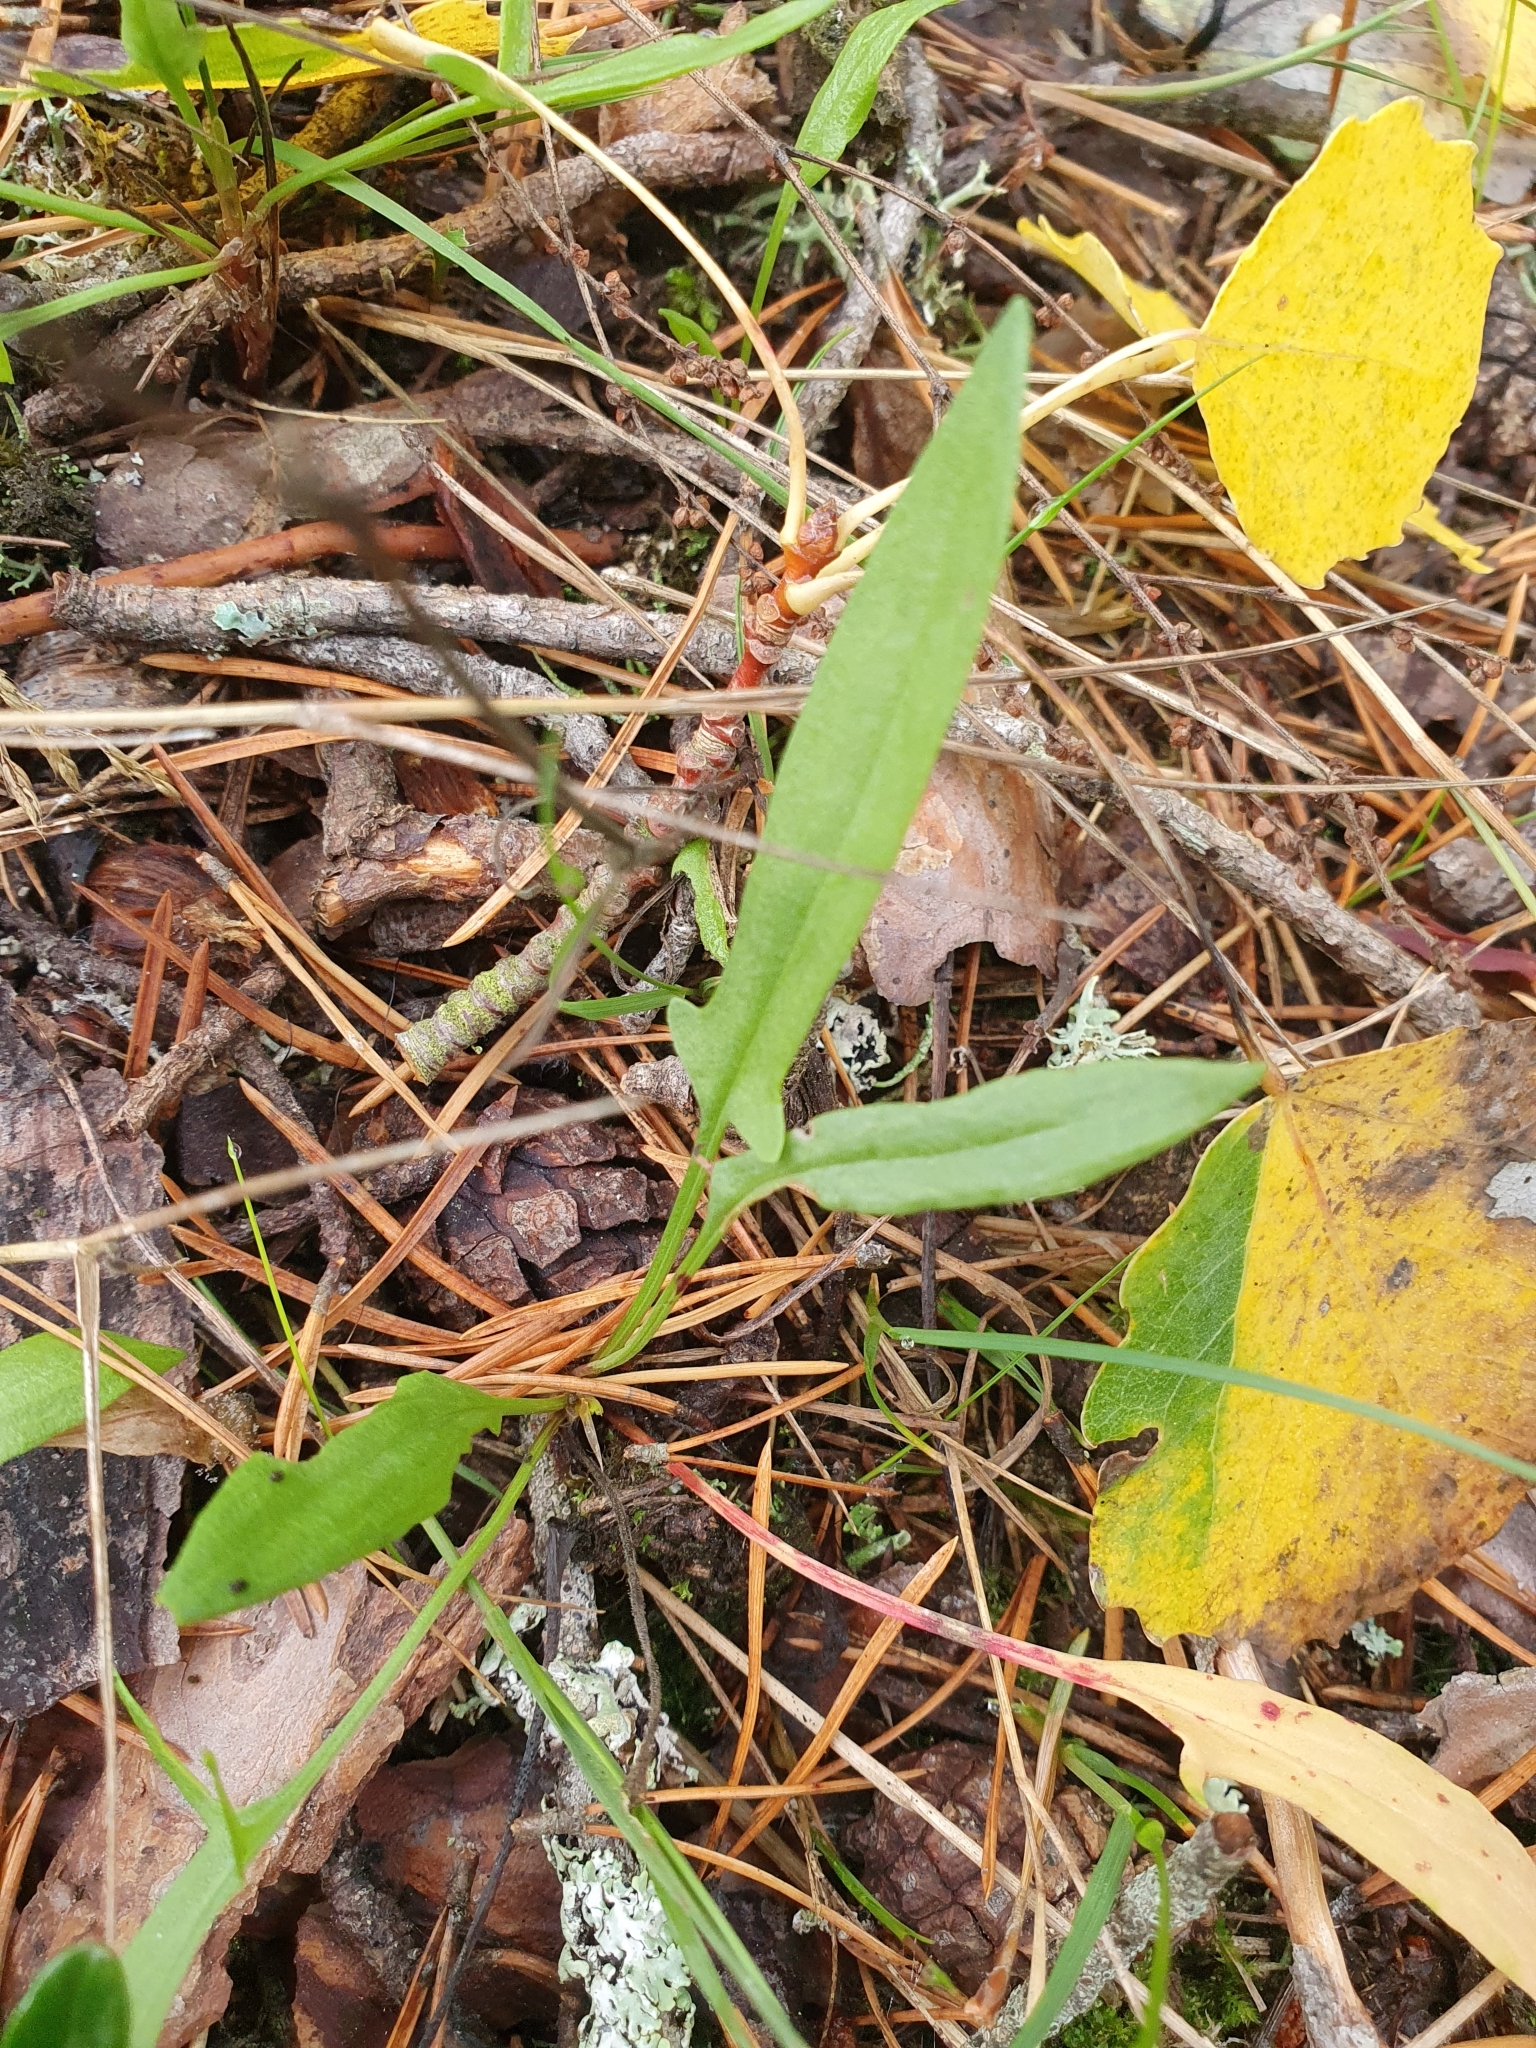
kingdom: Plantae
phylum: Tracheophyta
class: Magnoliopsida
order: Caryophyllales
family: Polygonaceae
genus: Rumex
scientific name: Rumex acetosella
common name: Common sheep sorrel
